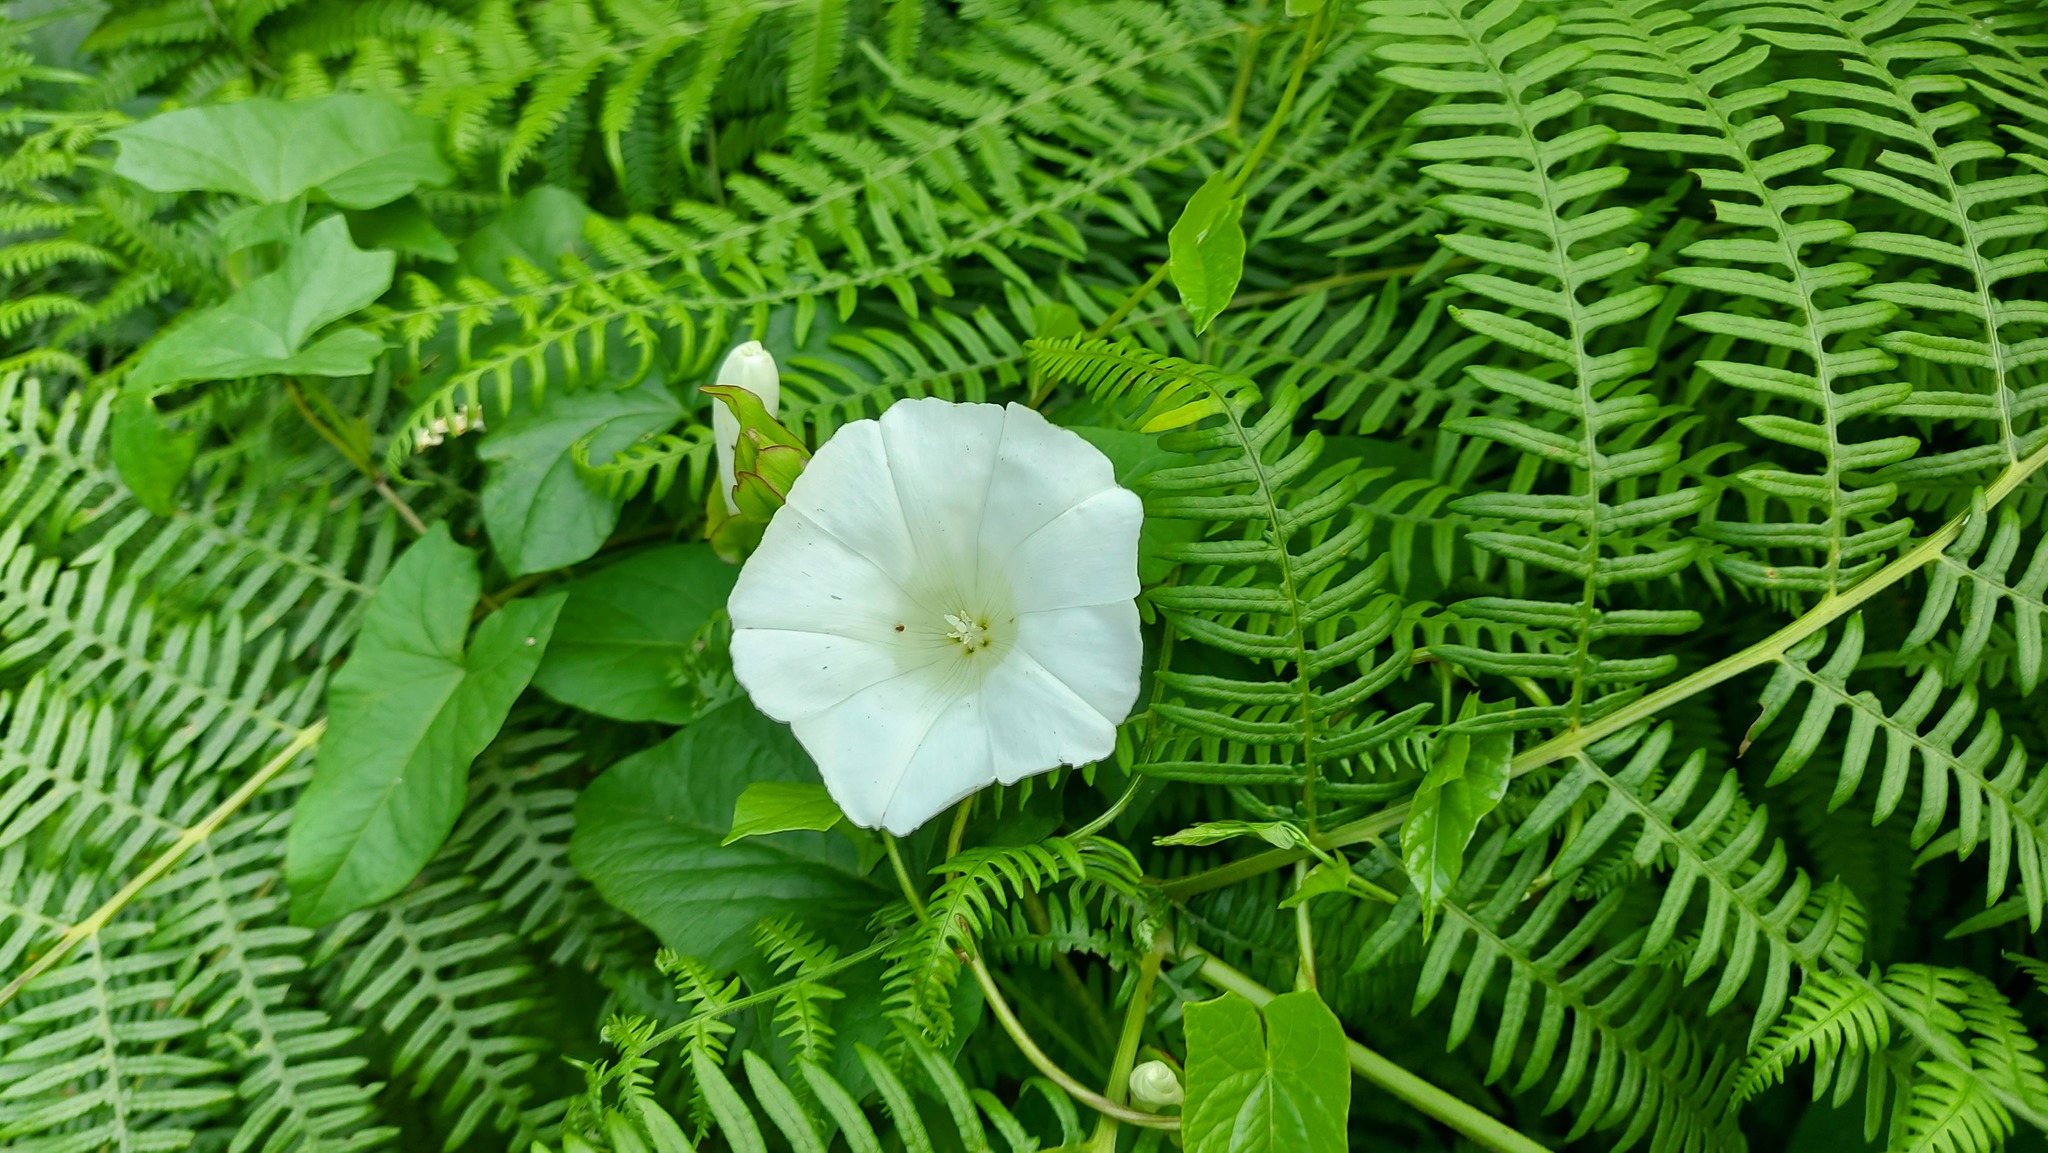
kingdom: Plantae
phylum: Tracheophyta
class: Magnoliopsida
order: Solanales
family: Convolvulaceae
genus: Calystegia
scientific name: Calystegia sepium
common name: Hedge bindweed
